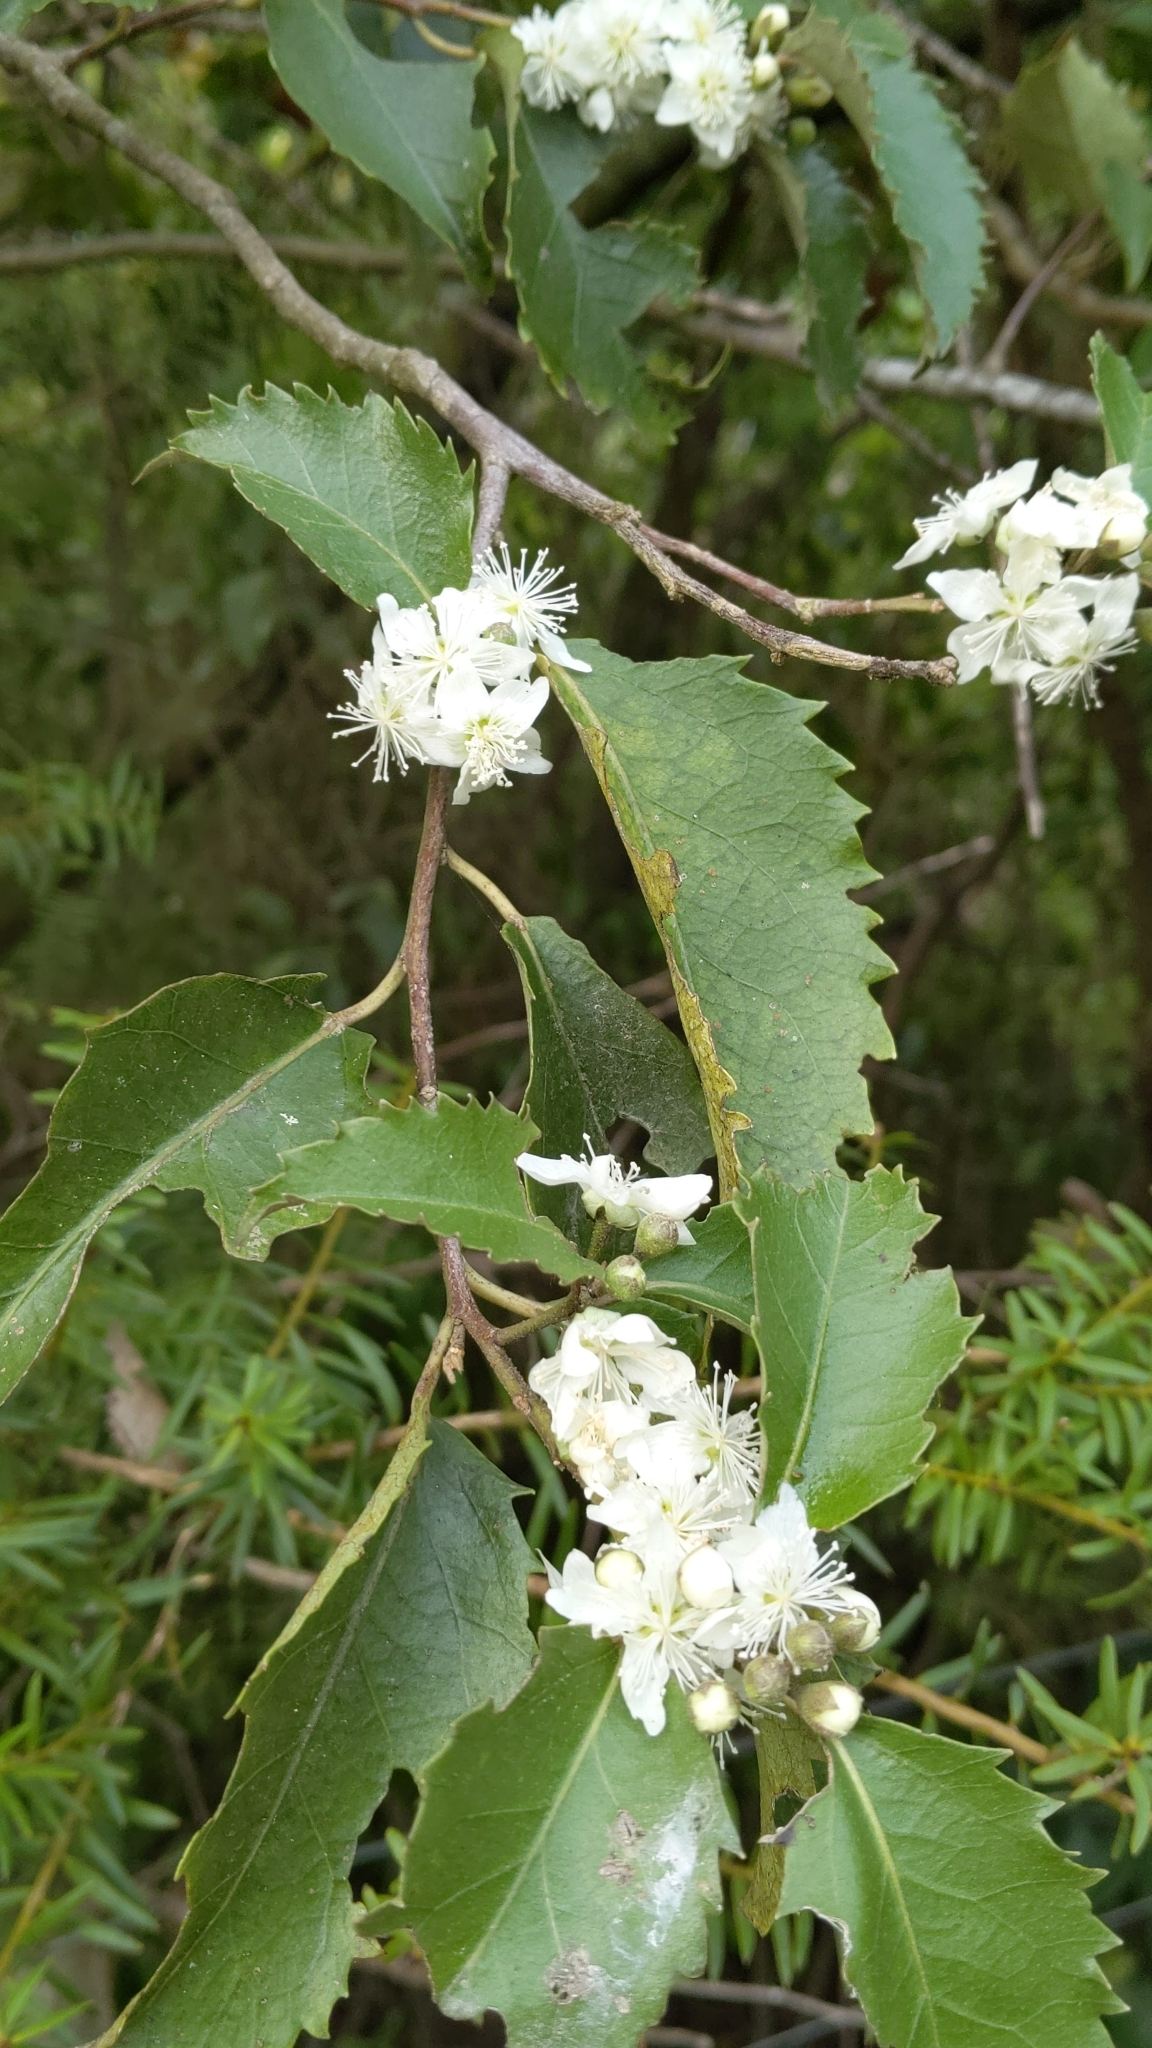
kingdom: Plantae
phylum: Tracheophyta
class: Magnoliopsida
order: Malvales
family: Malvaceae
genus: Hoheria
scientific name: Hoheria populnea
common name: Lacebark
